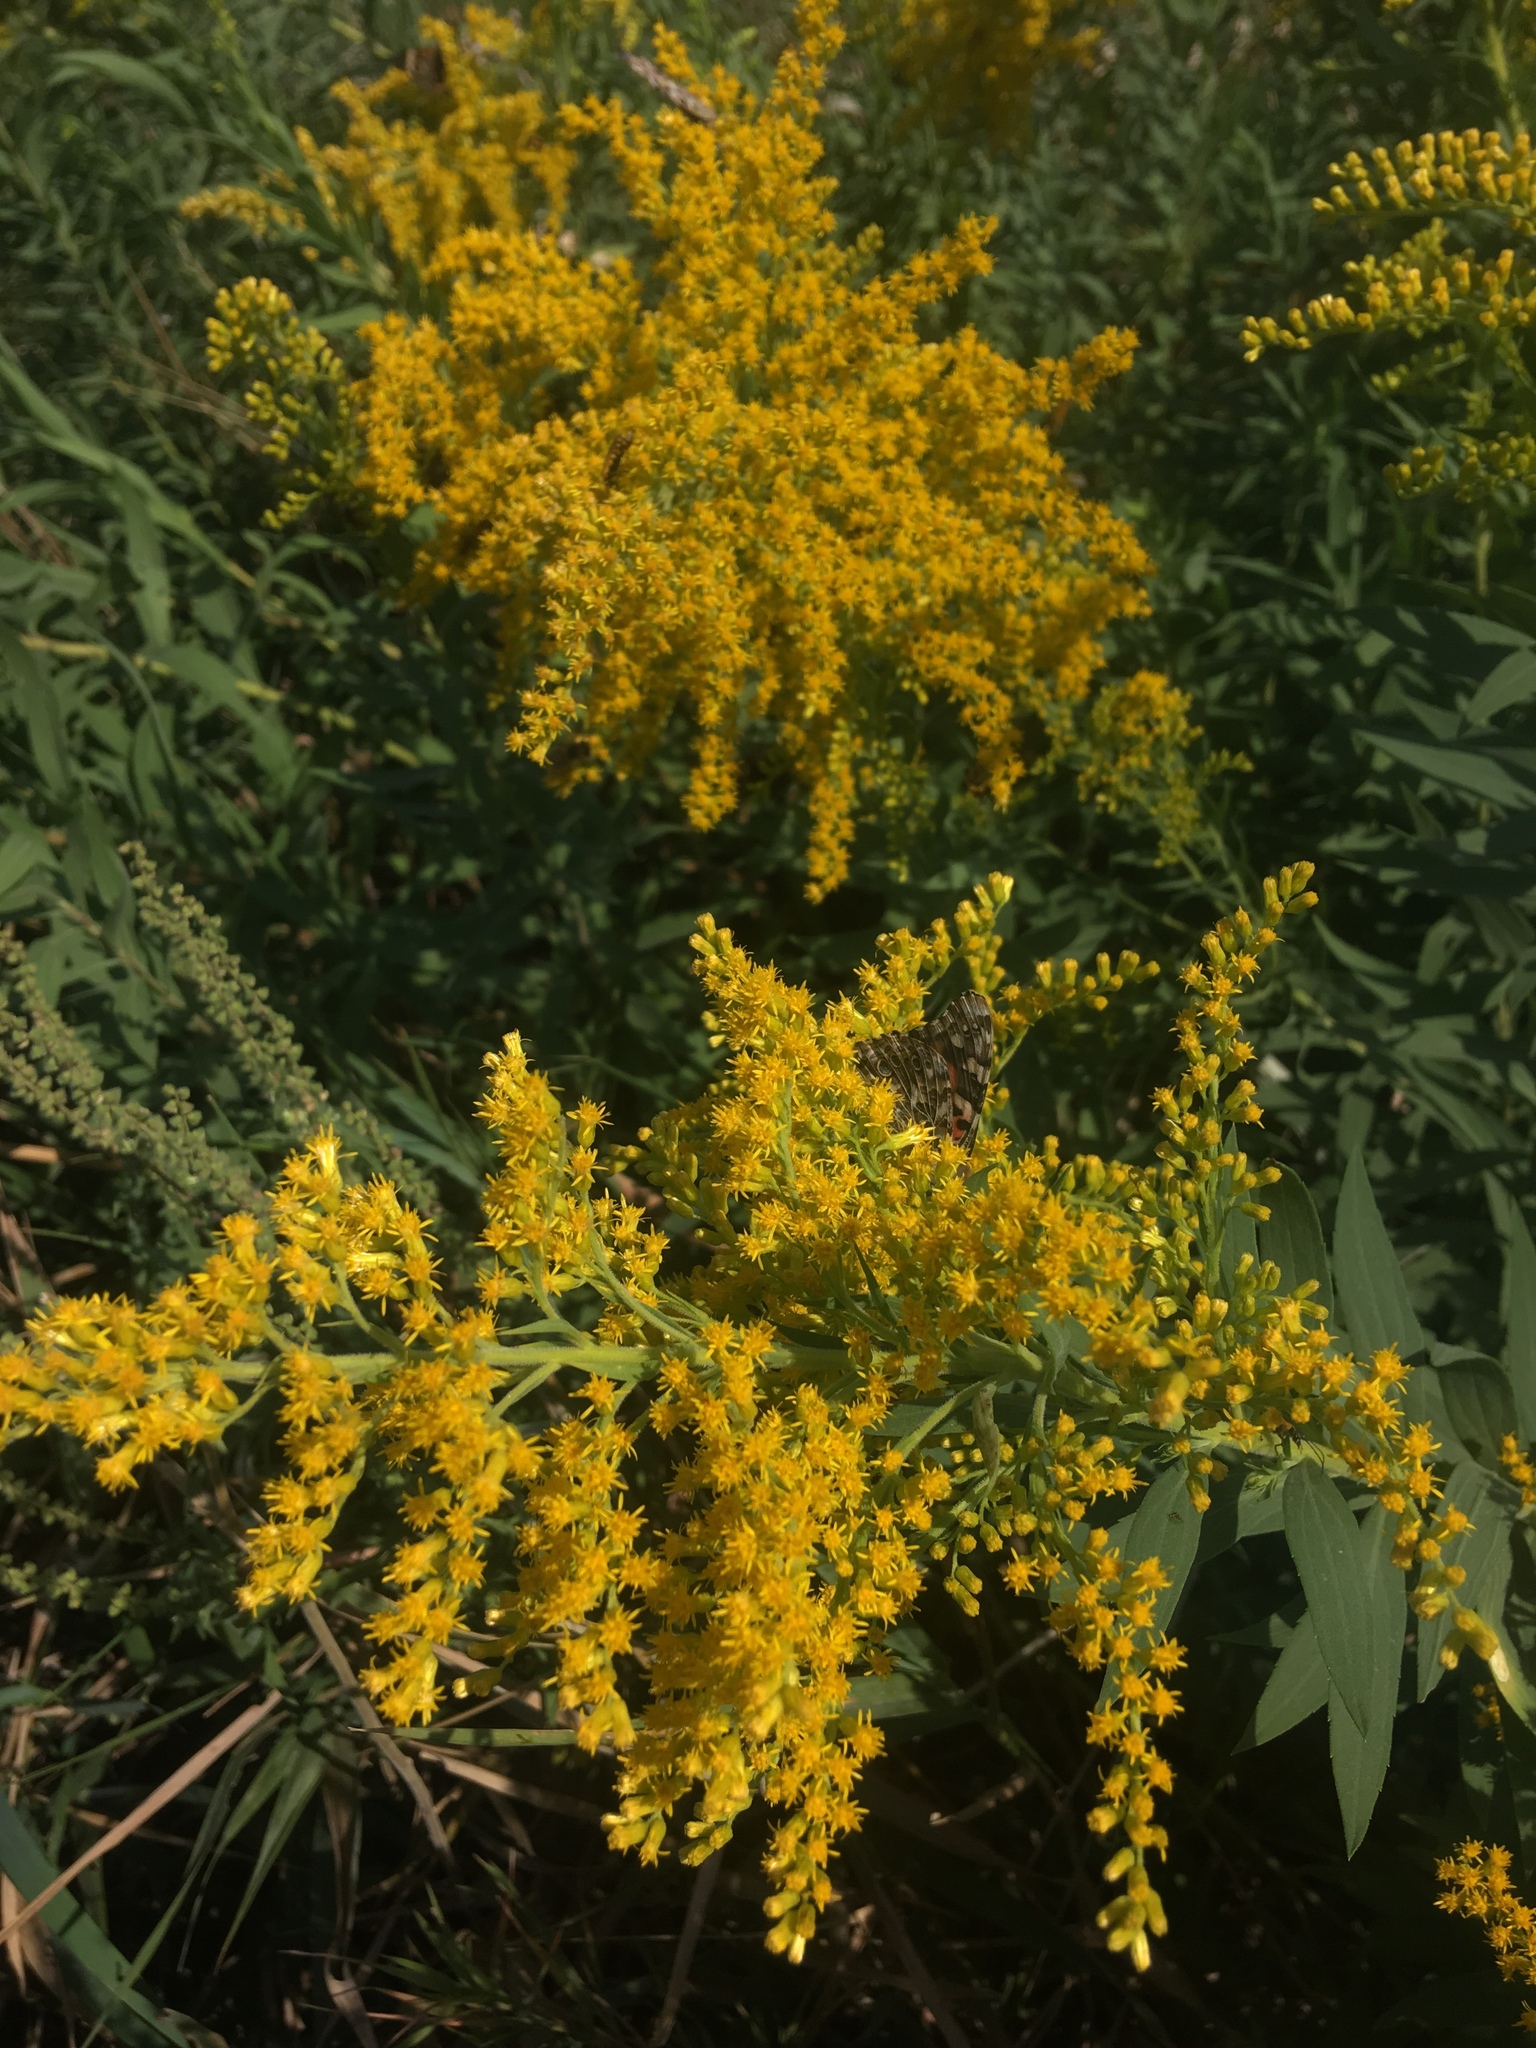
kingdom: Plantae
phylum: Tracheophyta
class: Magnoliopsida
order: Asterales
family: Asteraceae
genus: Solidago
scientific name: Solidago canadensis
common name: Canada goldenrod
